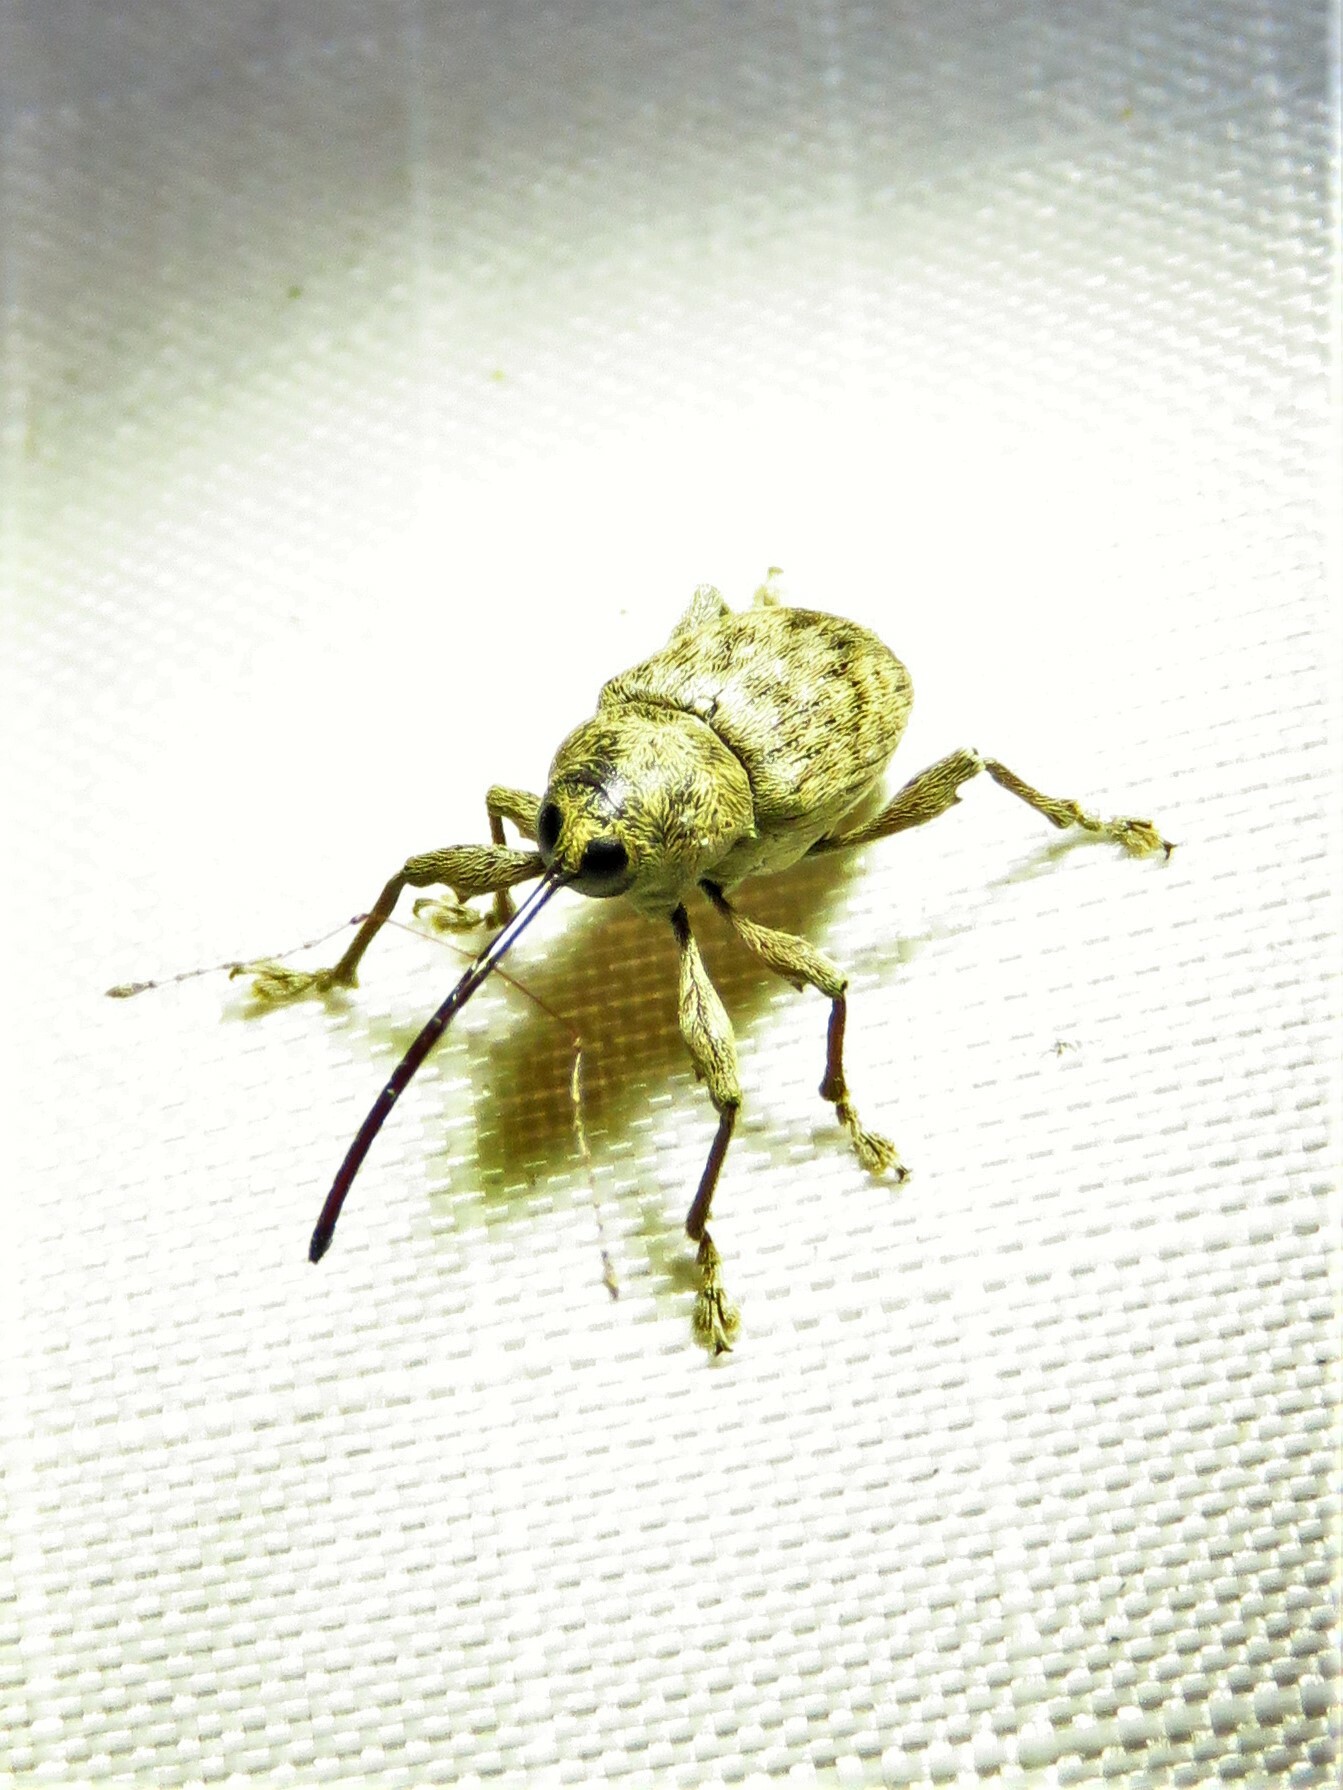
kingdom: Animalia
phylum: Arthropoda
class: Insecta
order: Coleoptera
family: Curculionidae
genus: Curculio
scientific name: Curculio
